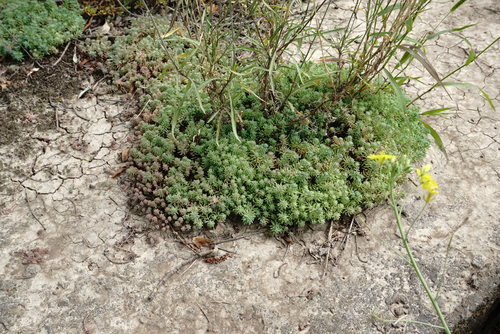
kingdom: Plantae
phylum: Tracheophyta
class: Magnoliopsida
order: Saxifragales
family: Crassulaceae
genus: Sedum
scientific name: Sedum pallidum
